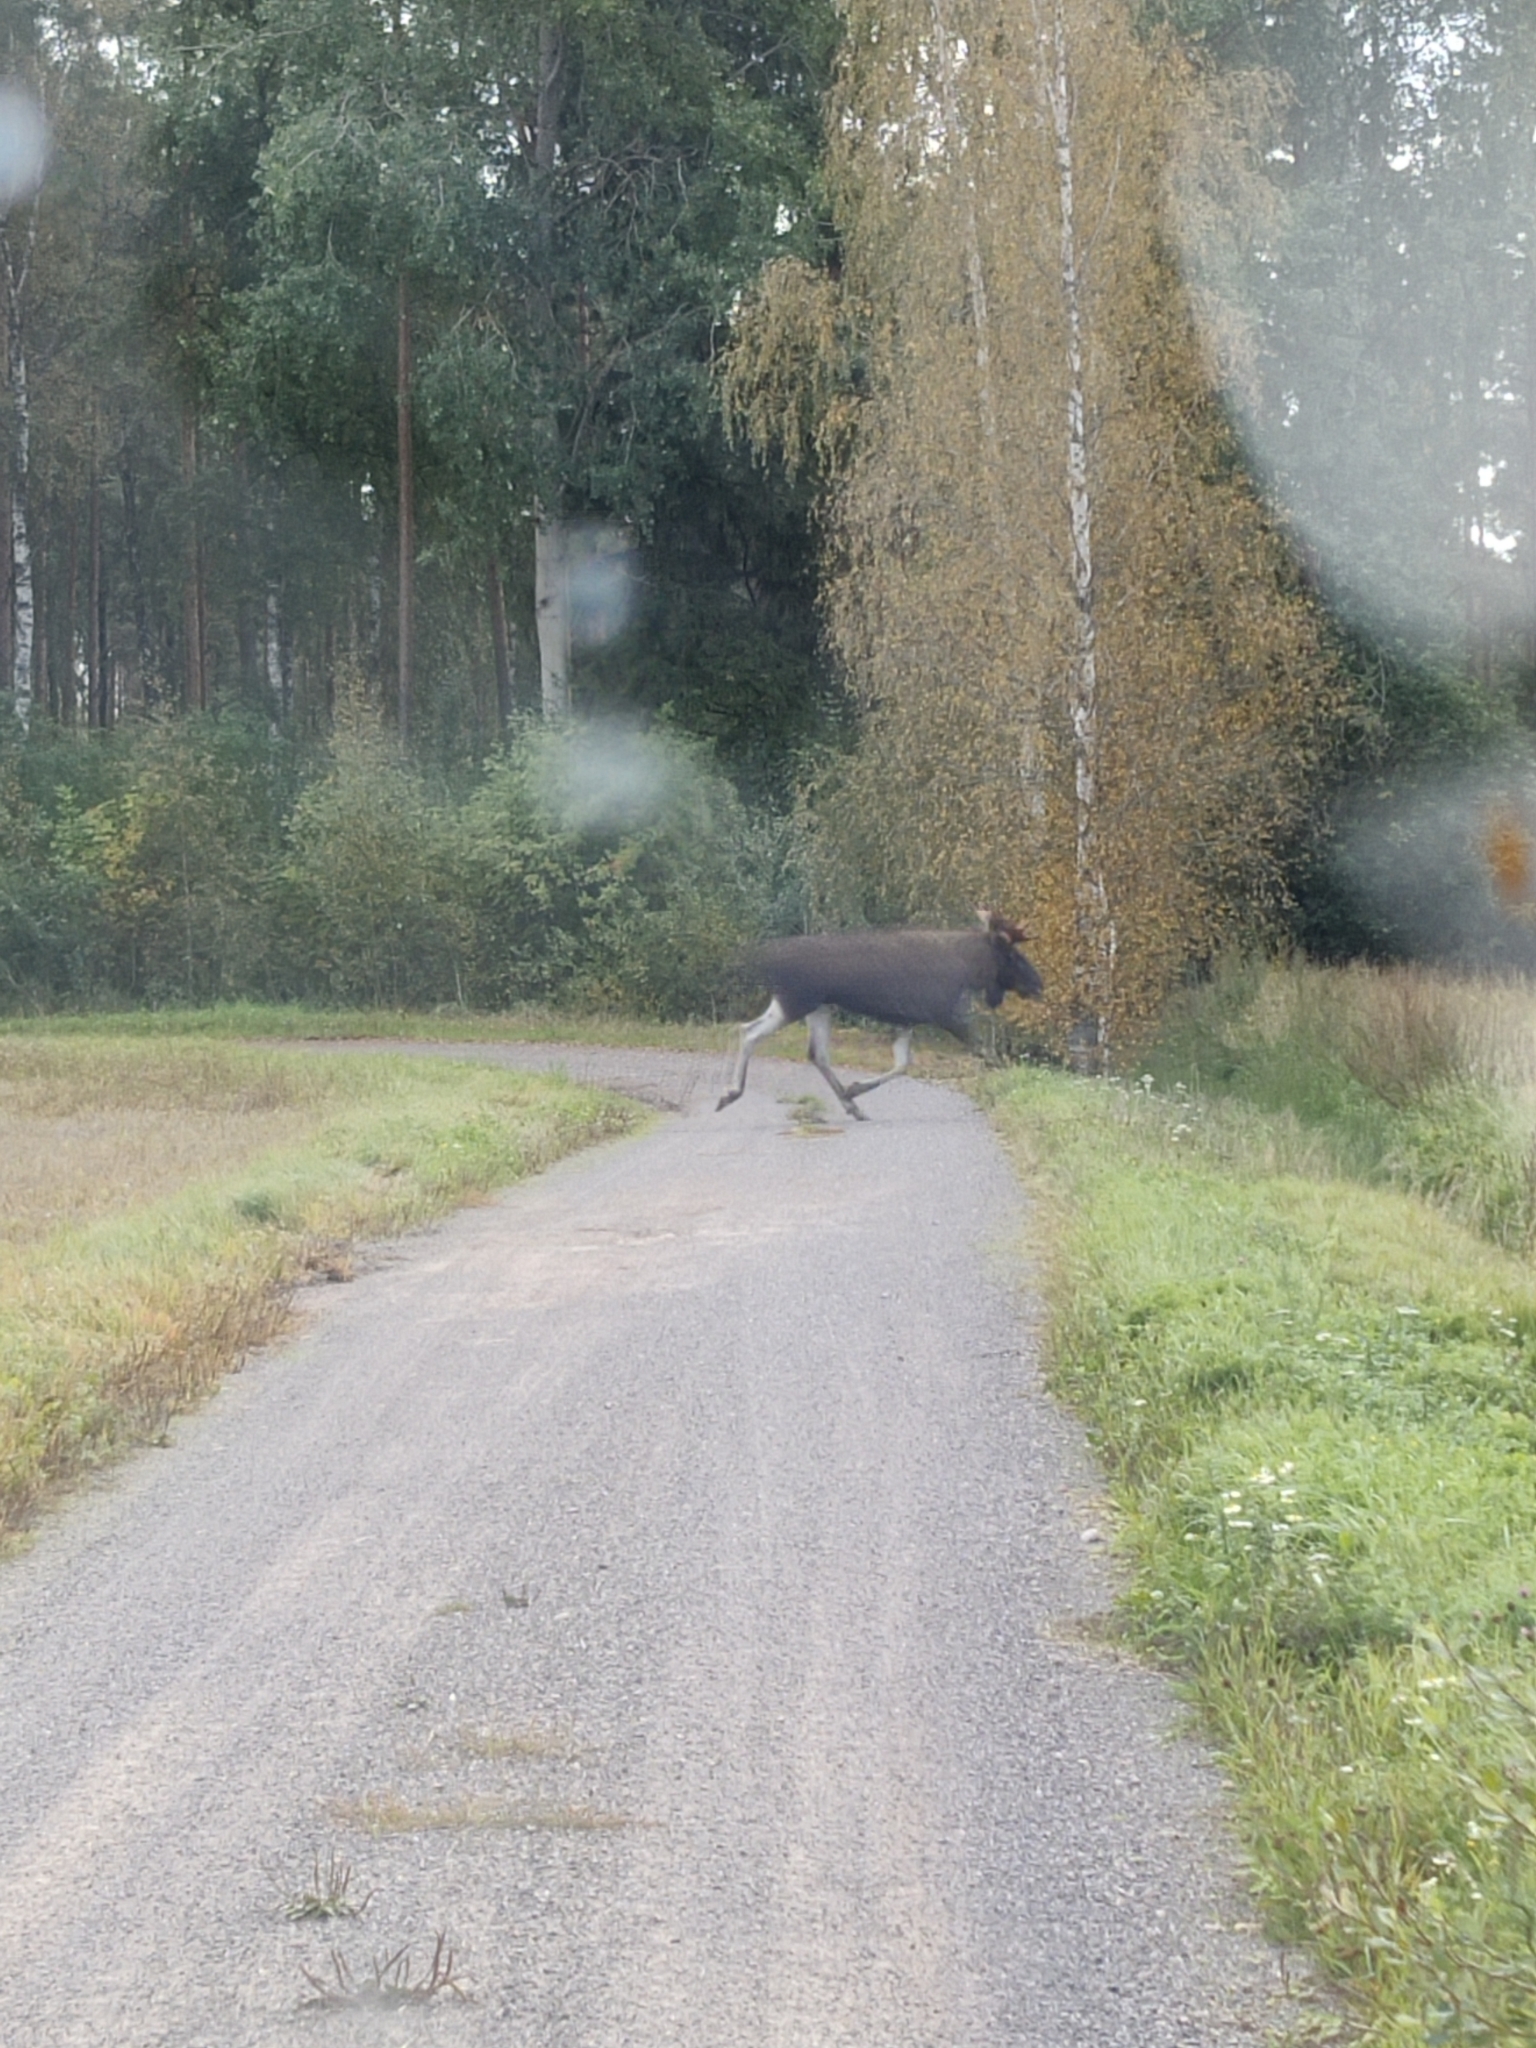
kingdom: Animalia
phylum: Chordata
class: Mammalia
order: Artiodactyla
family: Cervidae
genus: Alces
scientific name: Alces alces
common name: Moose
